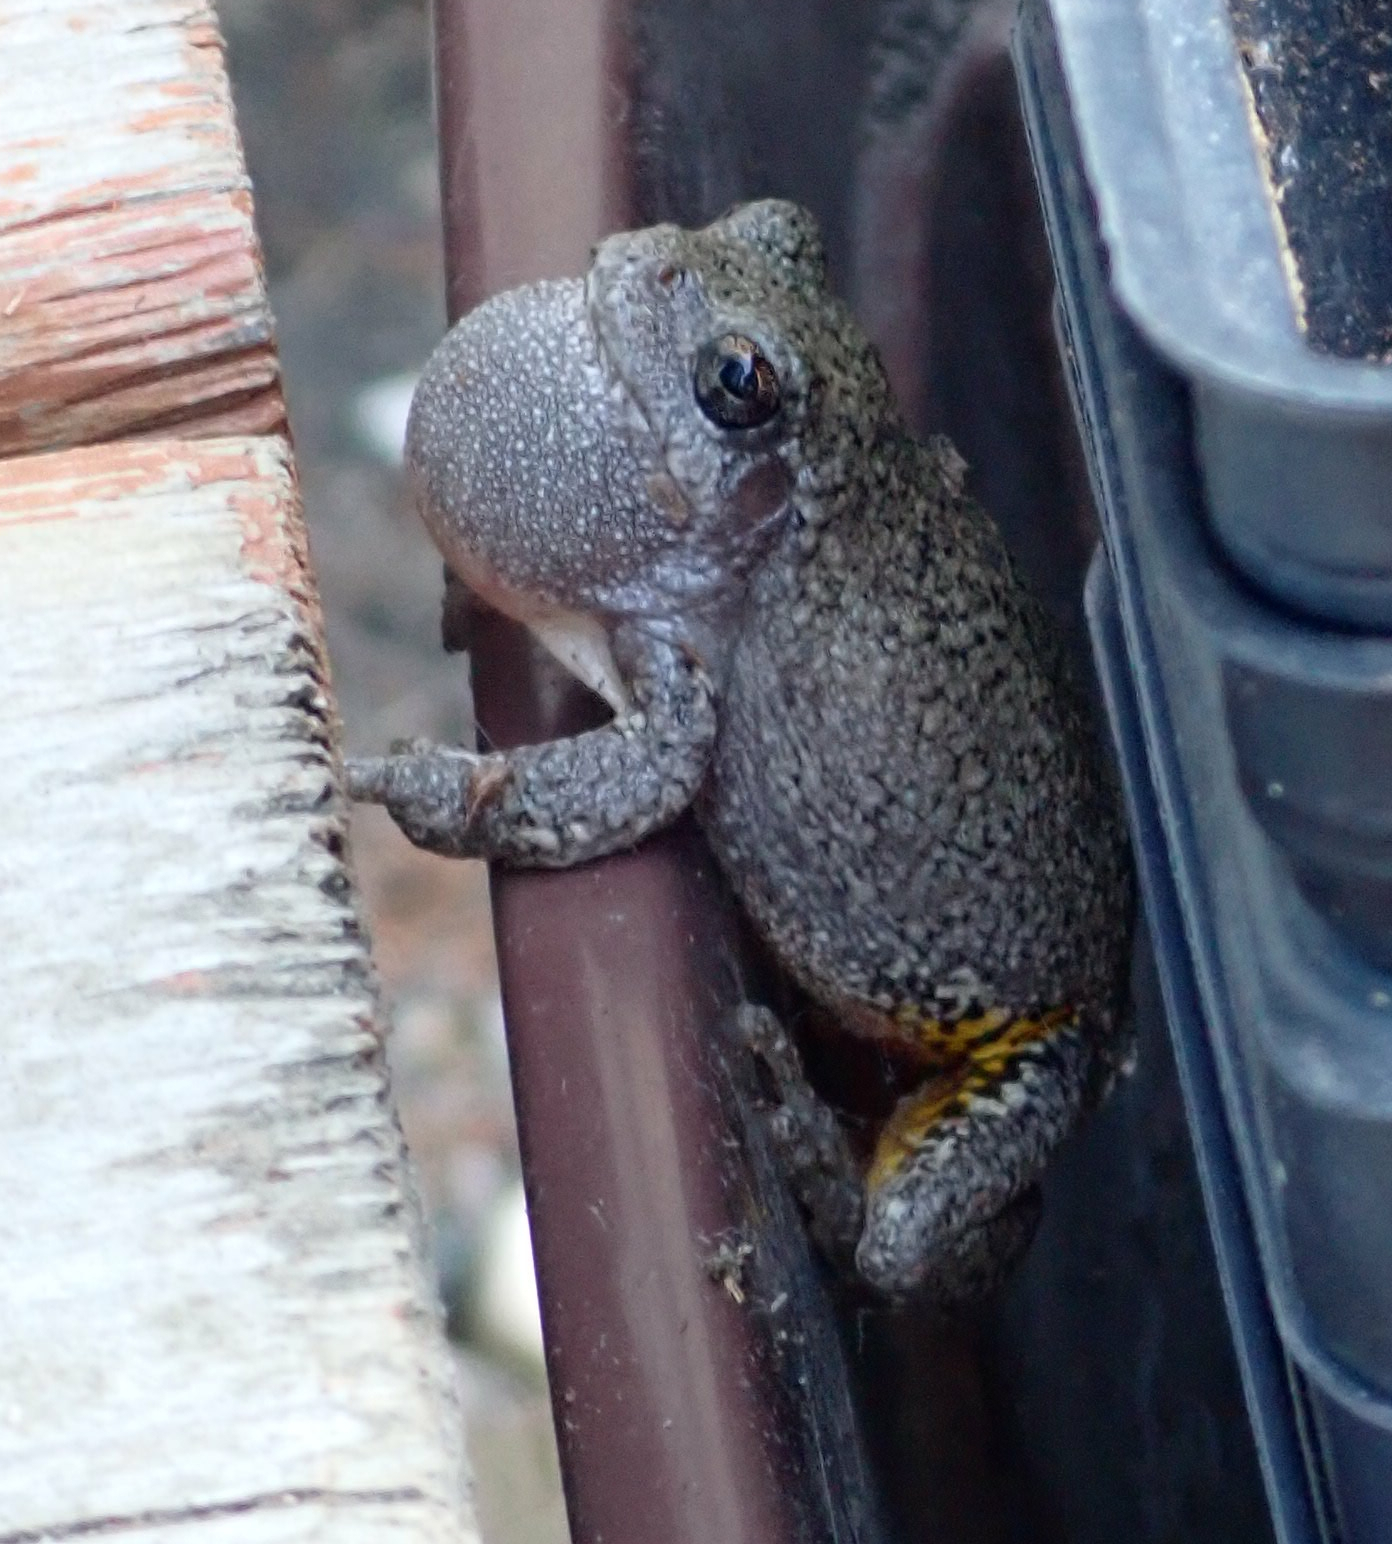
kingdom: Animalia
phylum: Chordata
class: Amphibia
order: Anura
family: Hylidae
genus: Dryophytes
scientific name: Dryophytes versicolor
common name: Gray treefrog
